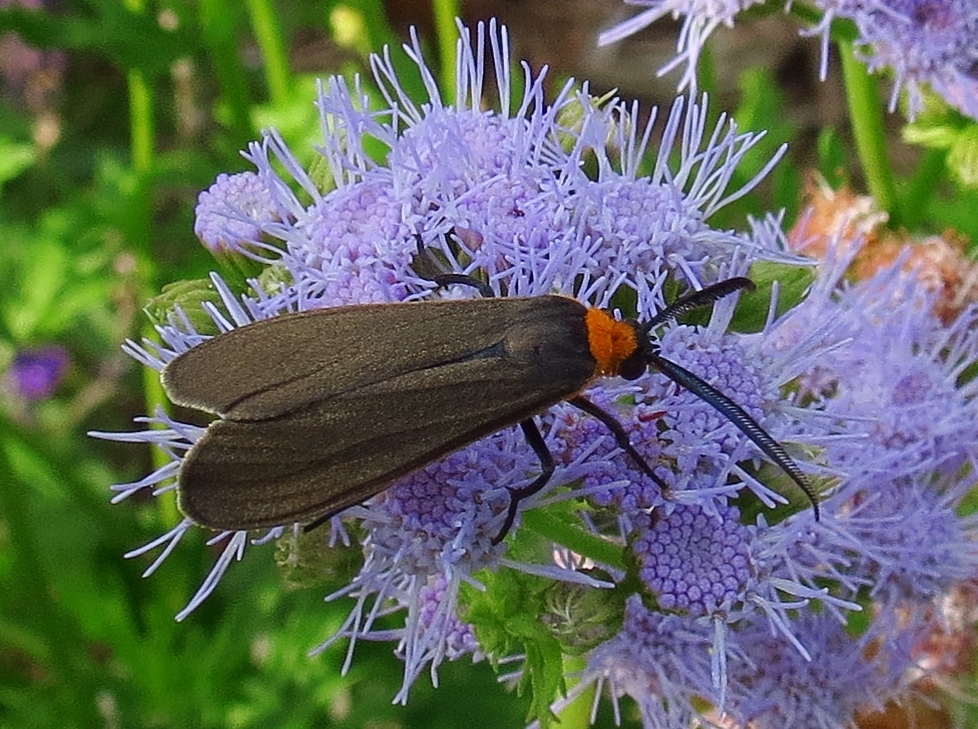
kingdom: Animalia
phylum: Arthropoda
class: Insecta
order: Lepidoptera
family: Erebidae
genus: Cisseps
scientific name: Cisseps fulvicollis
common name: Yellow-collared scape moth
